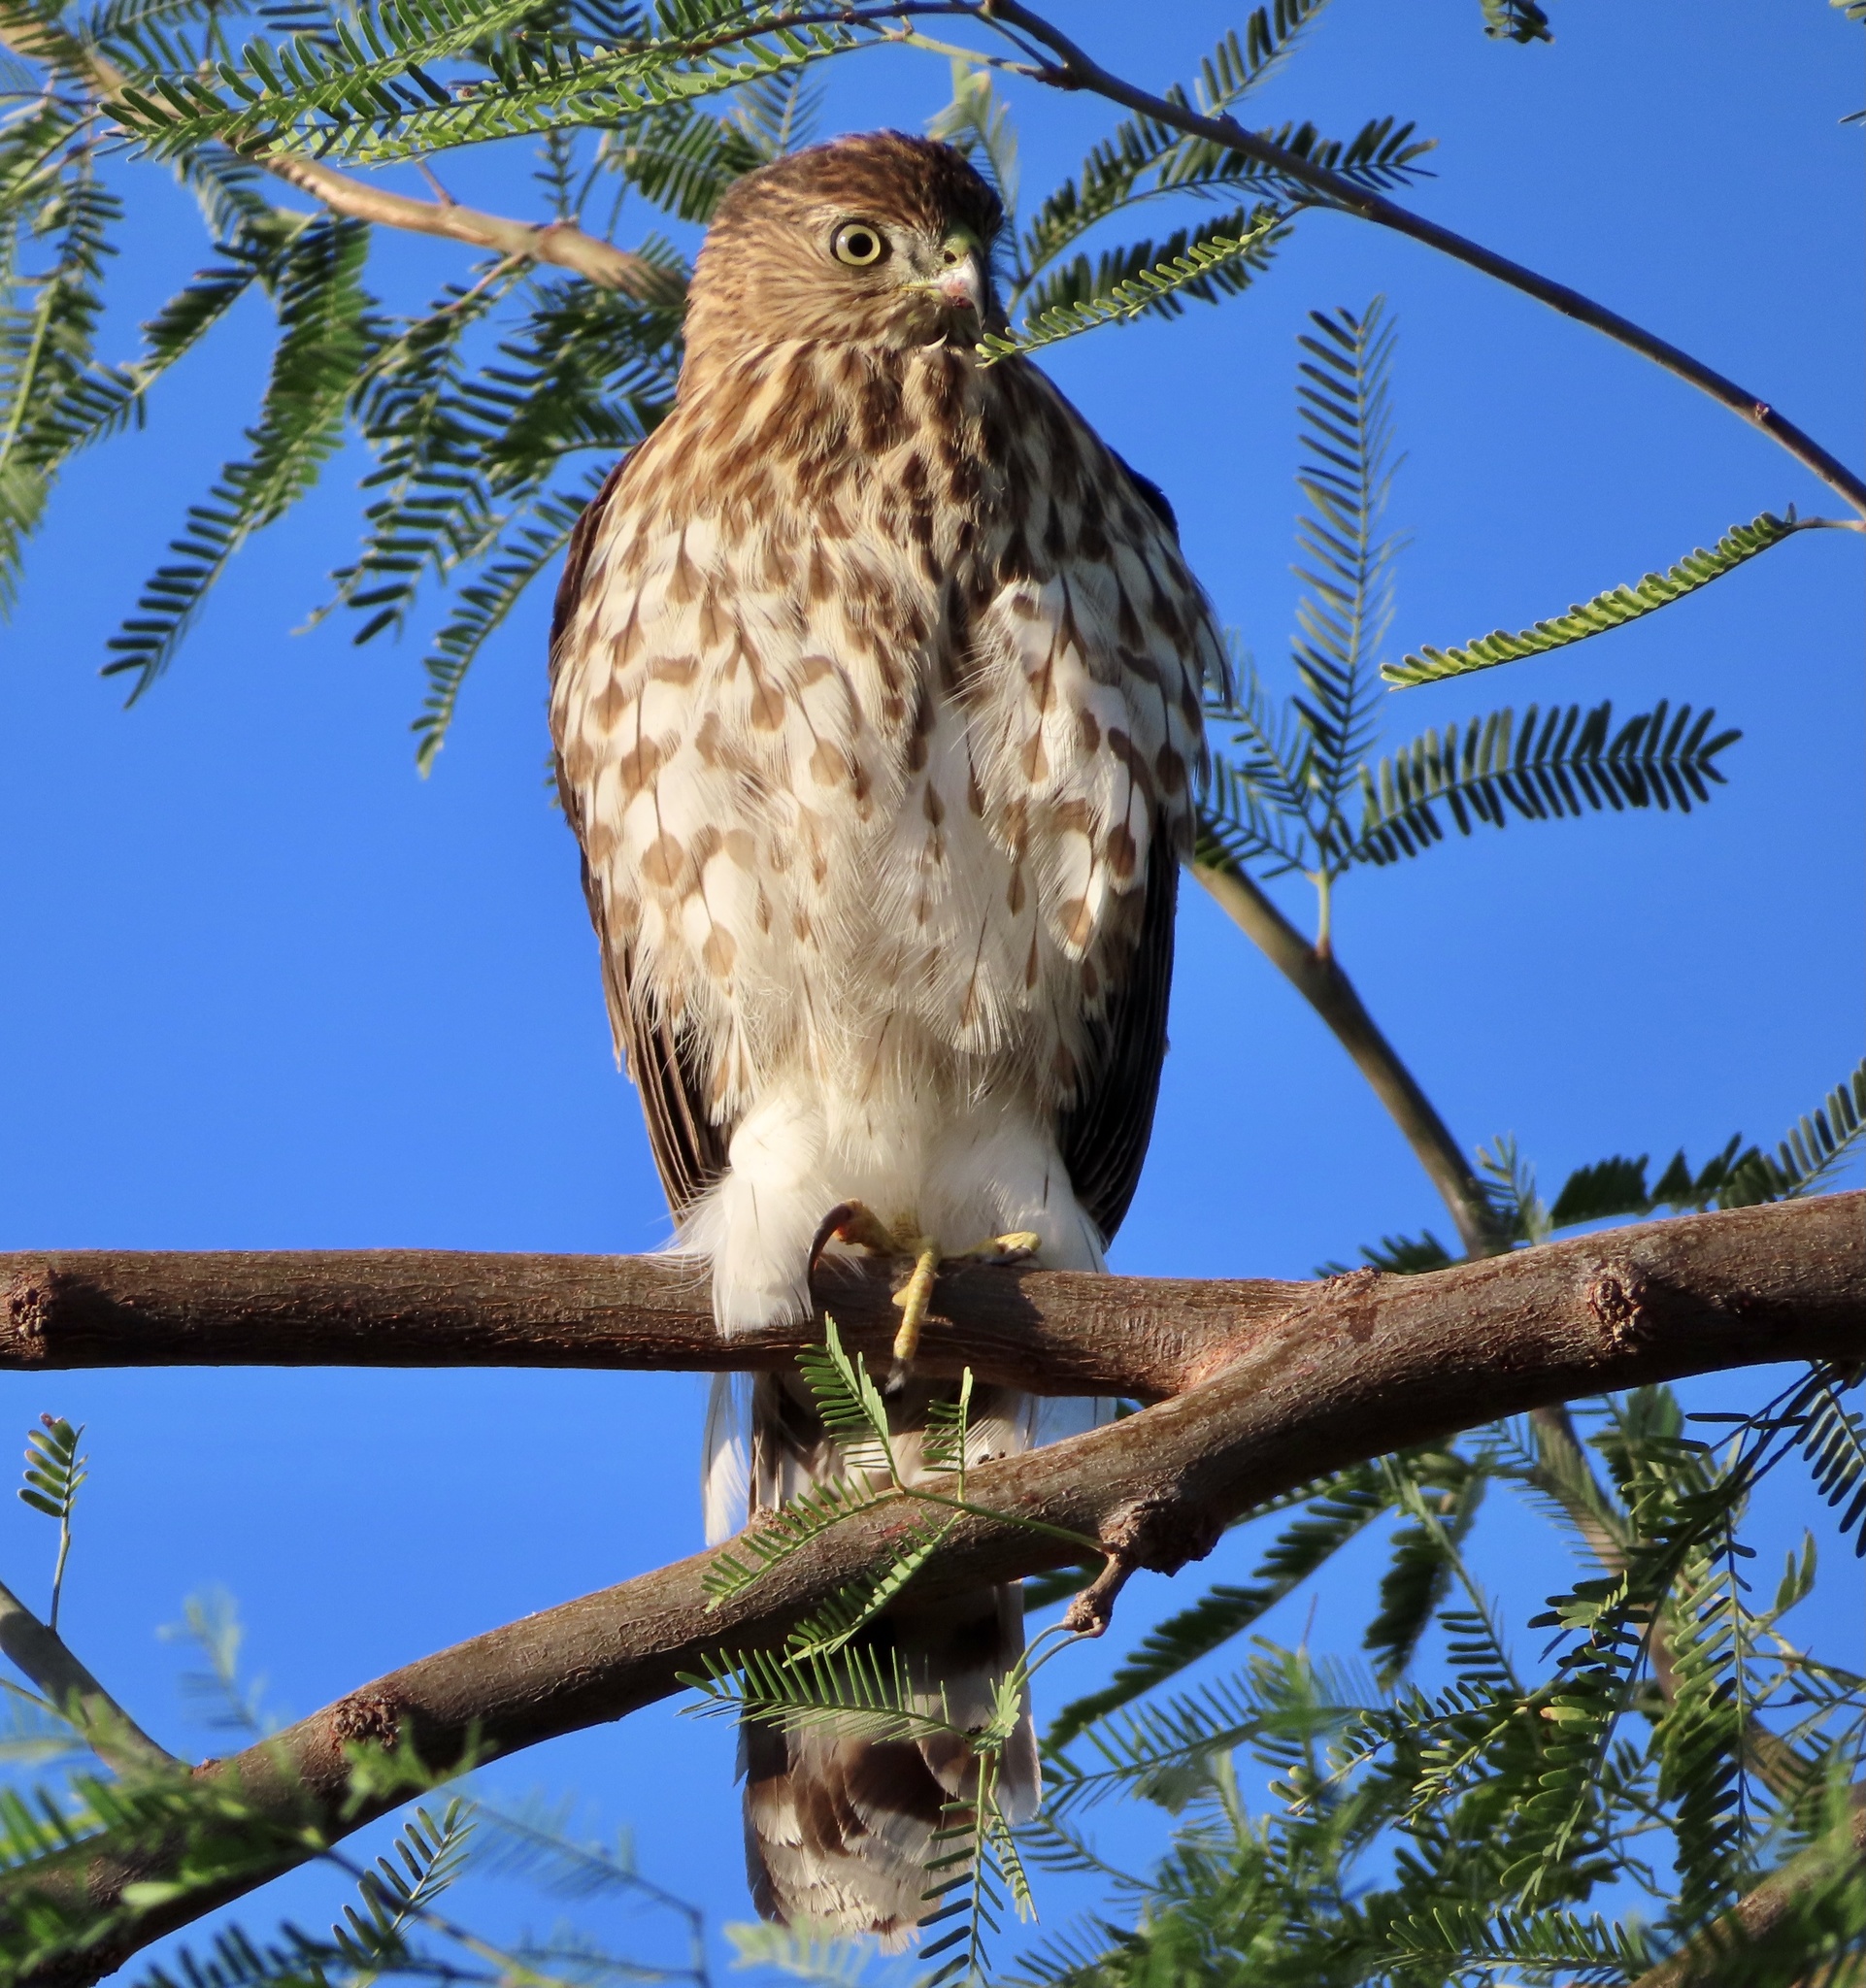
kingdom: Animalia
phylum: Chordata
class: Aves
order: Accipitriformes
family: Accipitridae
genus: Accipiter
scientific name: Accipiter cooperii
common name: Cooper's hawk
